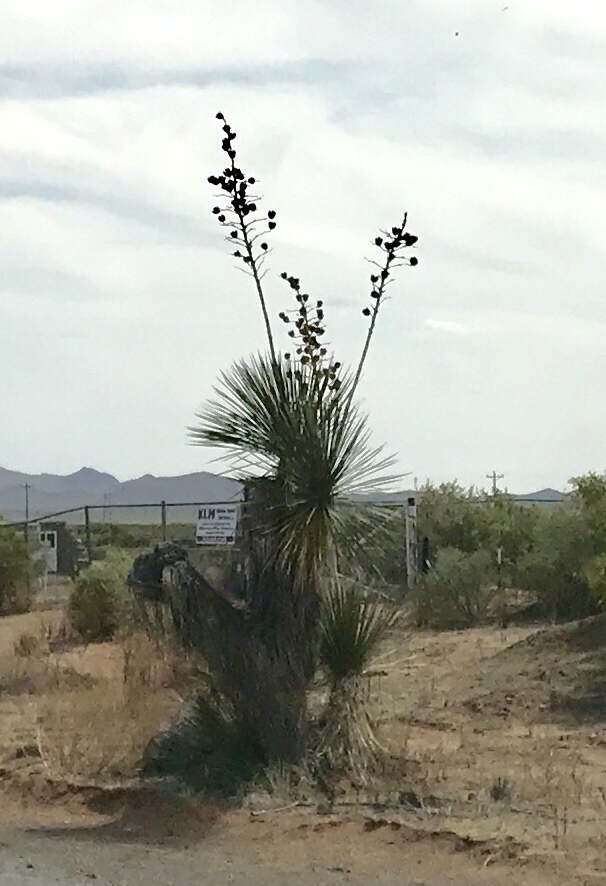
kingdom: Plantae
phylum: Tracheophyta
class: Liliopsida
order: Asparagales
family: Asparagaceae
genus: Yucca
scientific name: Yucca elata
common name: Palmella
